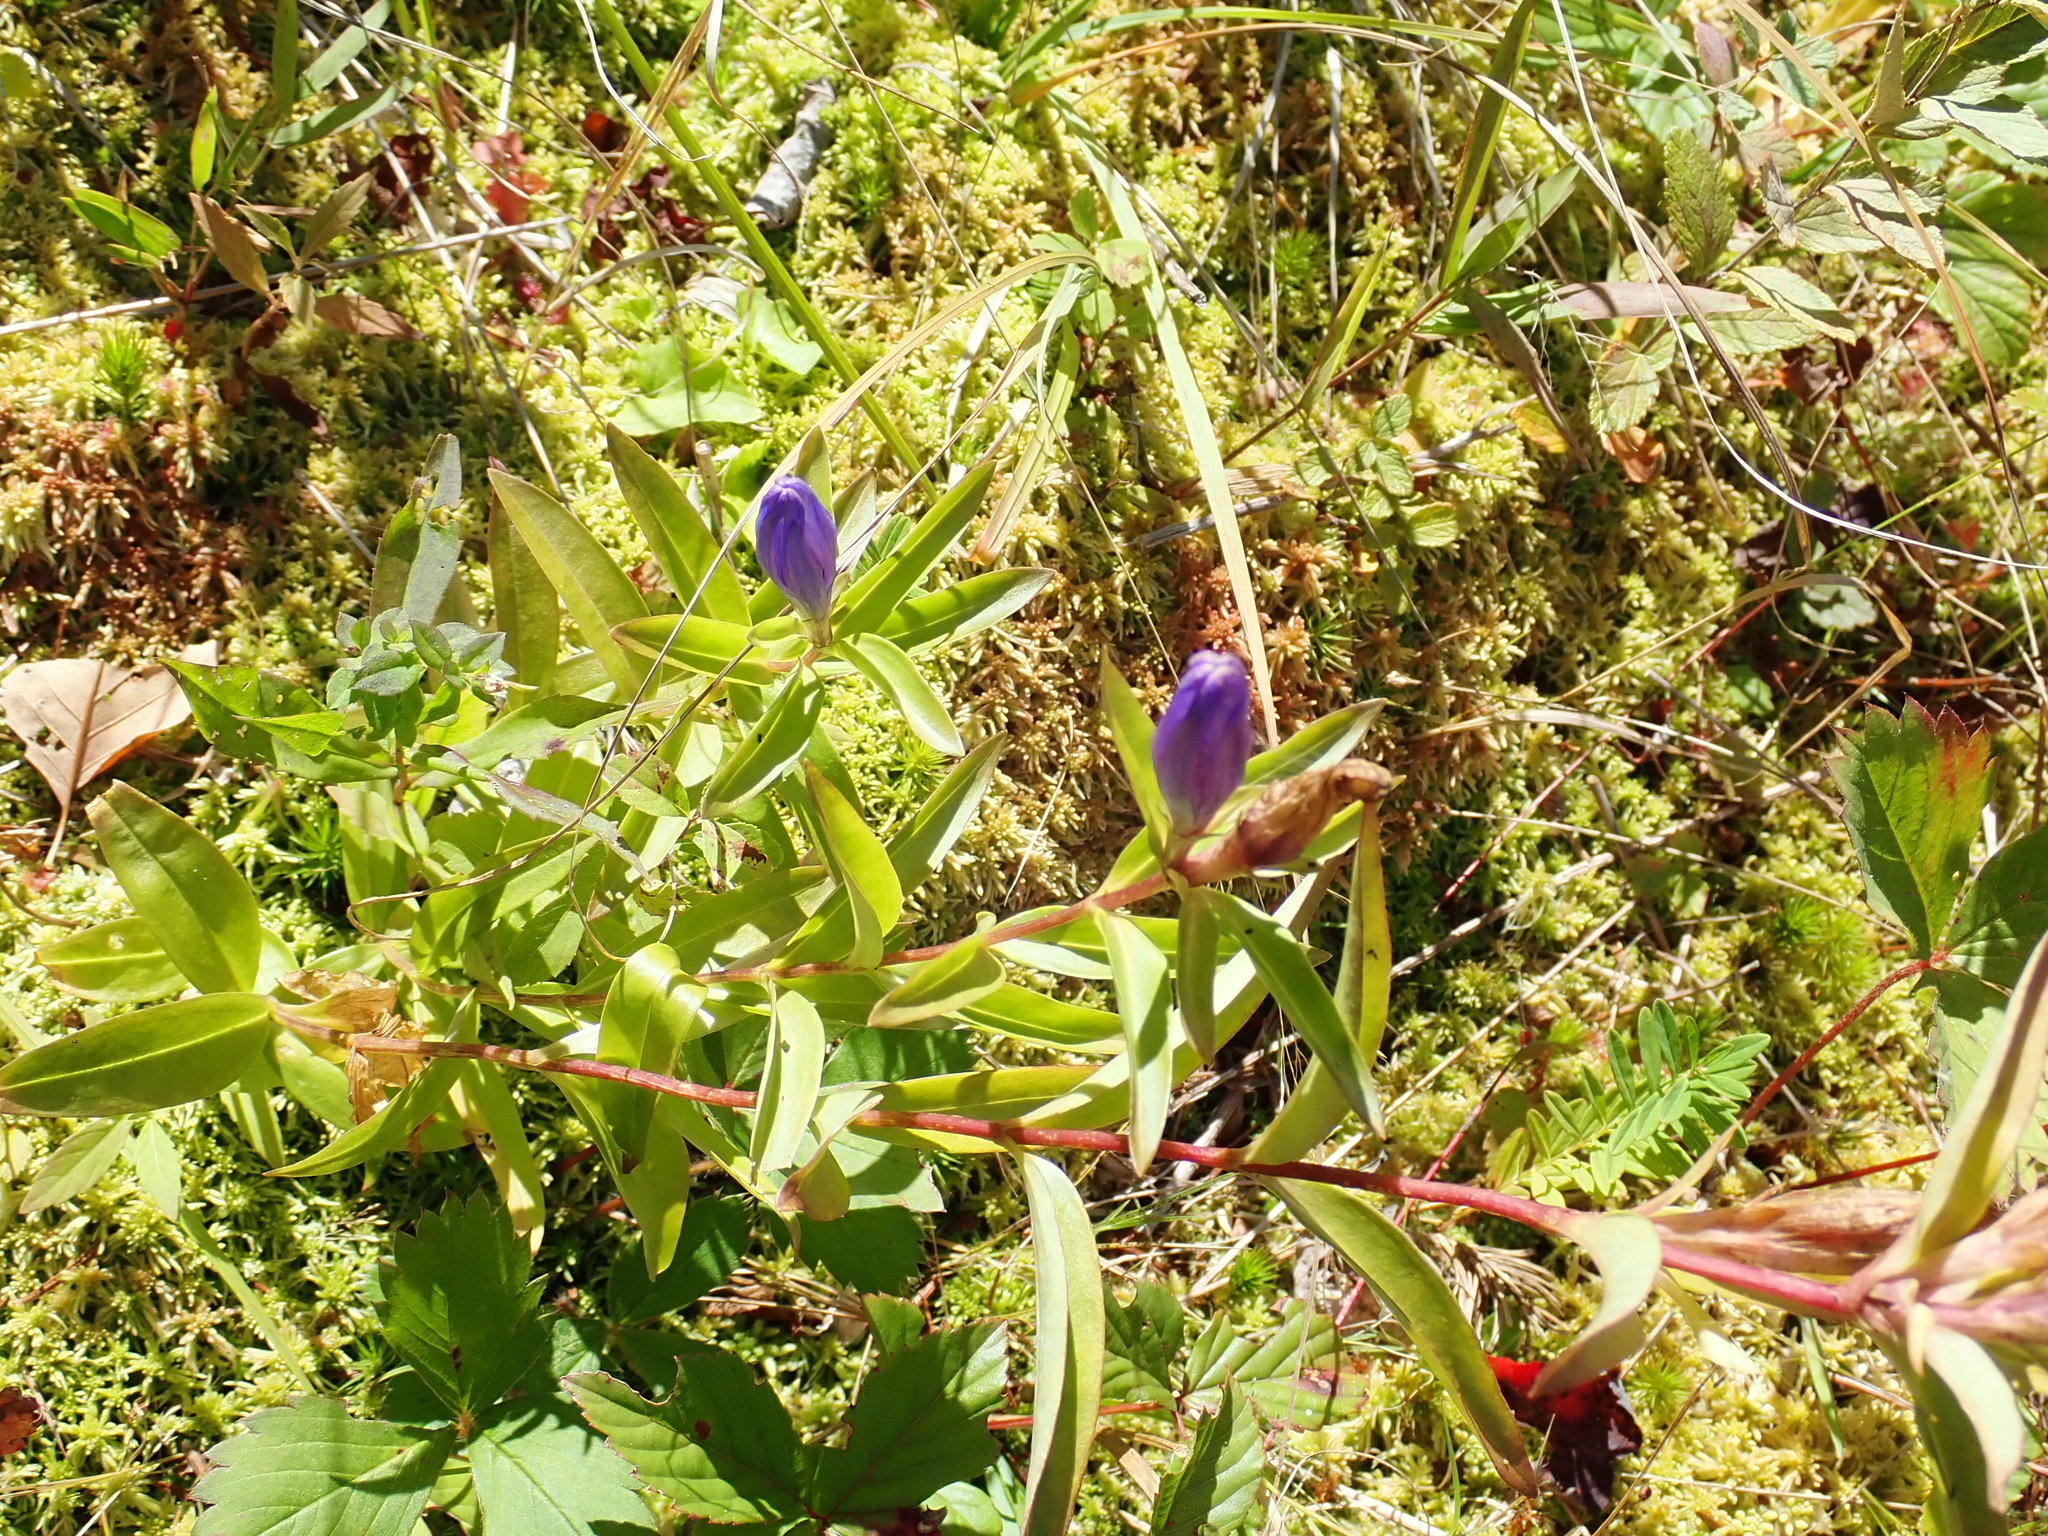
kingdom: Plantae
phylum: Tracheophyta
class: Magnoliopsida
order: Gentianales
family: Gentianaceae
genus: Gentiana
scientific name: Gentiana linearis
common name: Bastard gentian
